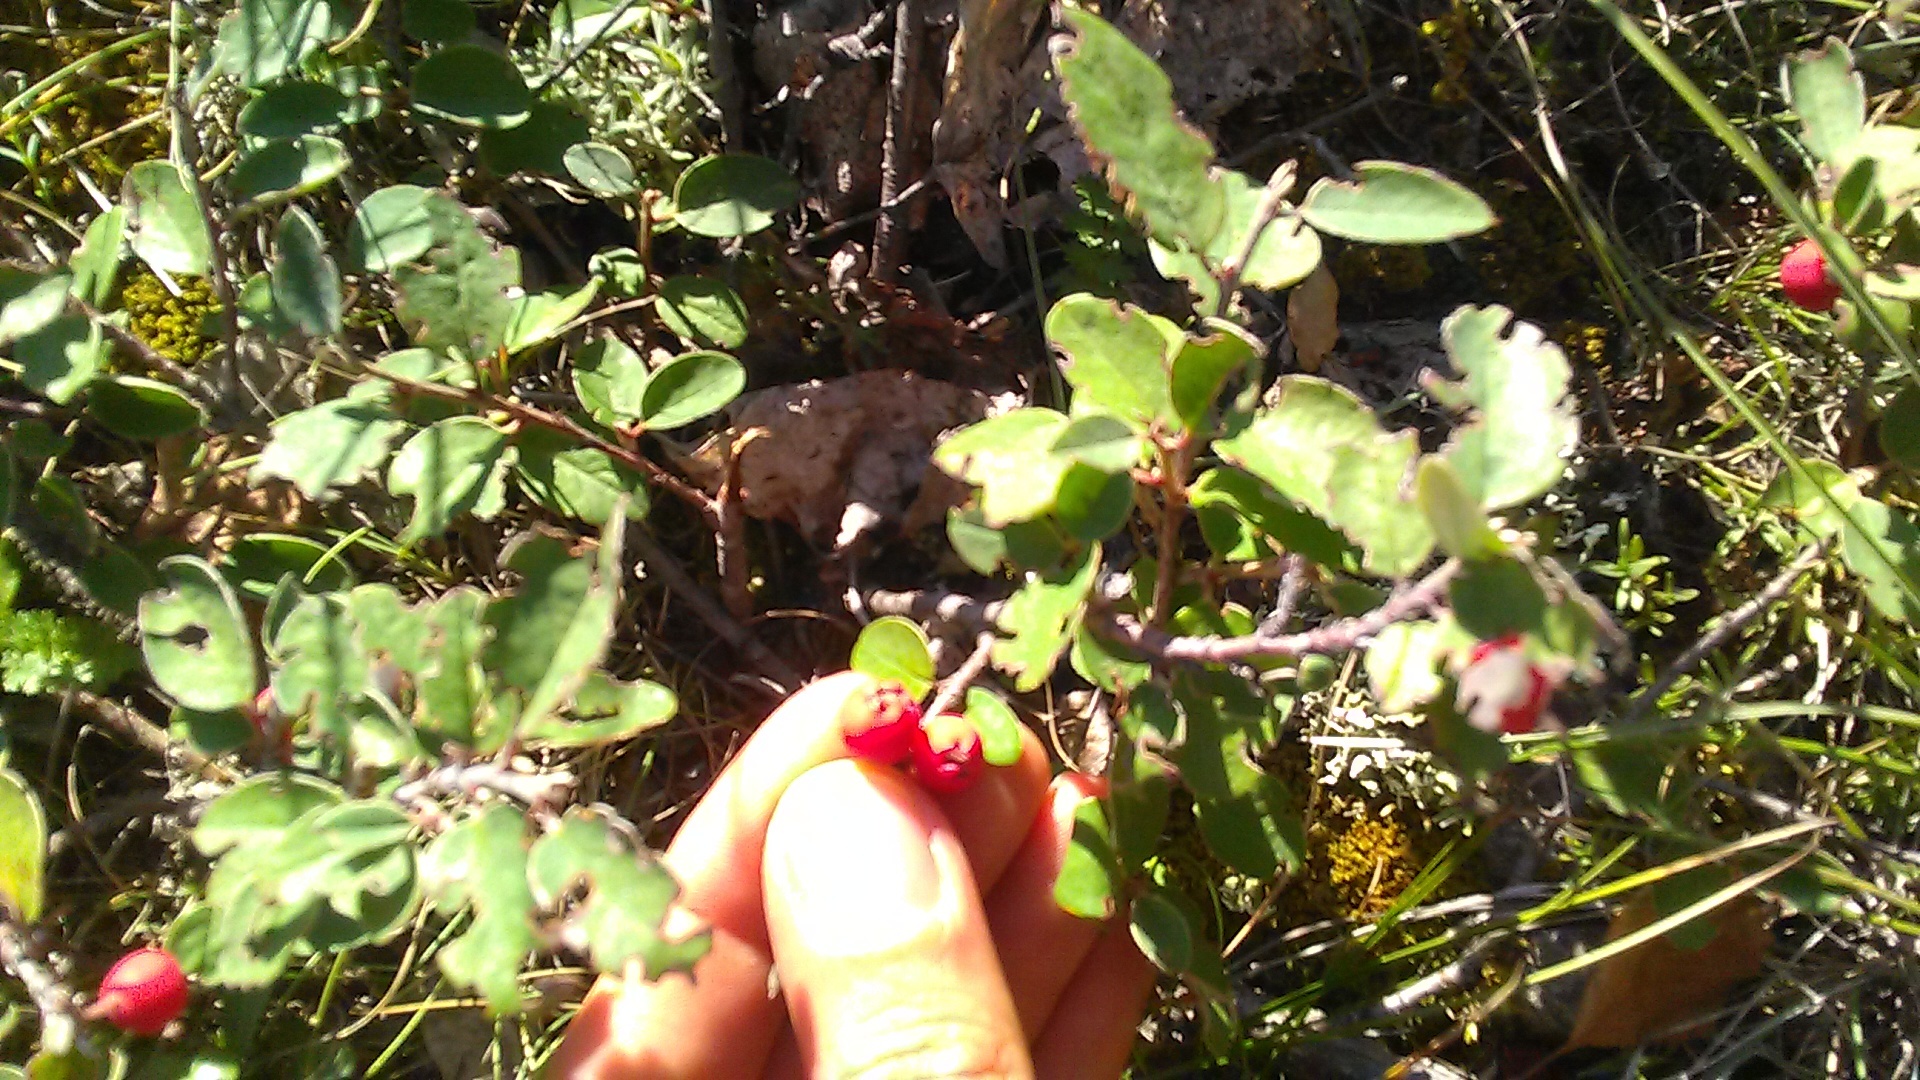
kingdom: Plantae
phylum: Tracheophyta
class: Magnoliopsida
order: Rosales
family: Rosaceae
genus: Cotoneaster
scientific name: Cotoneaster tauricus
